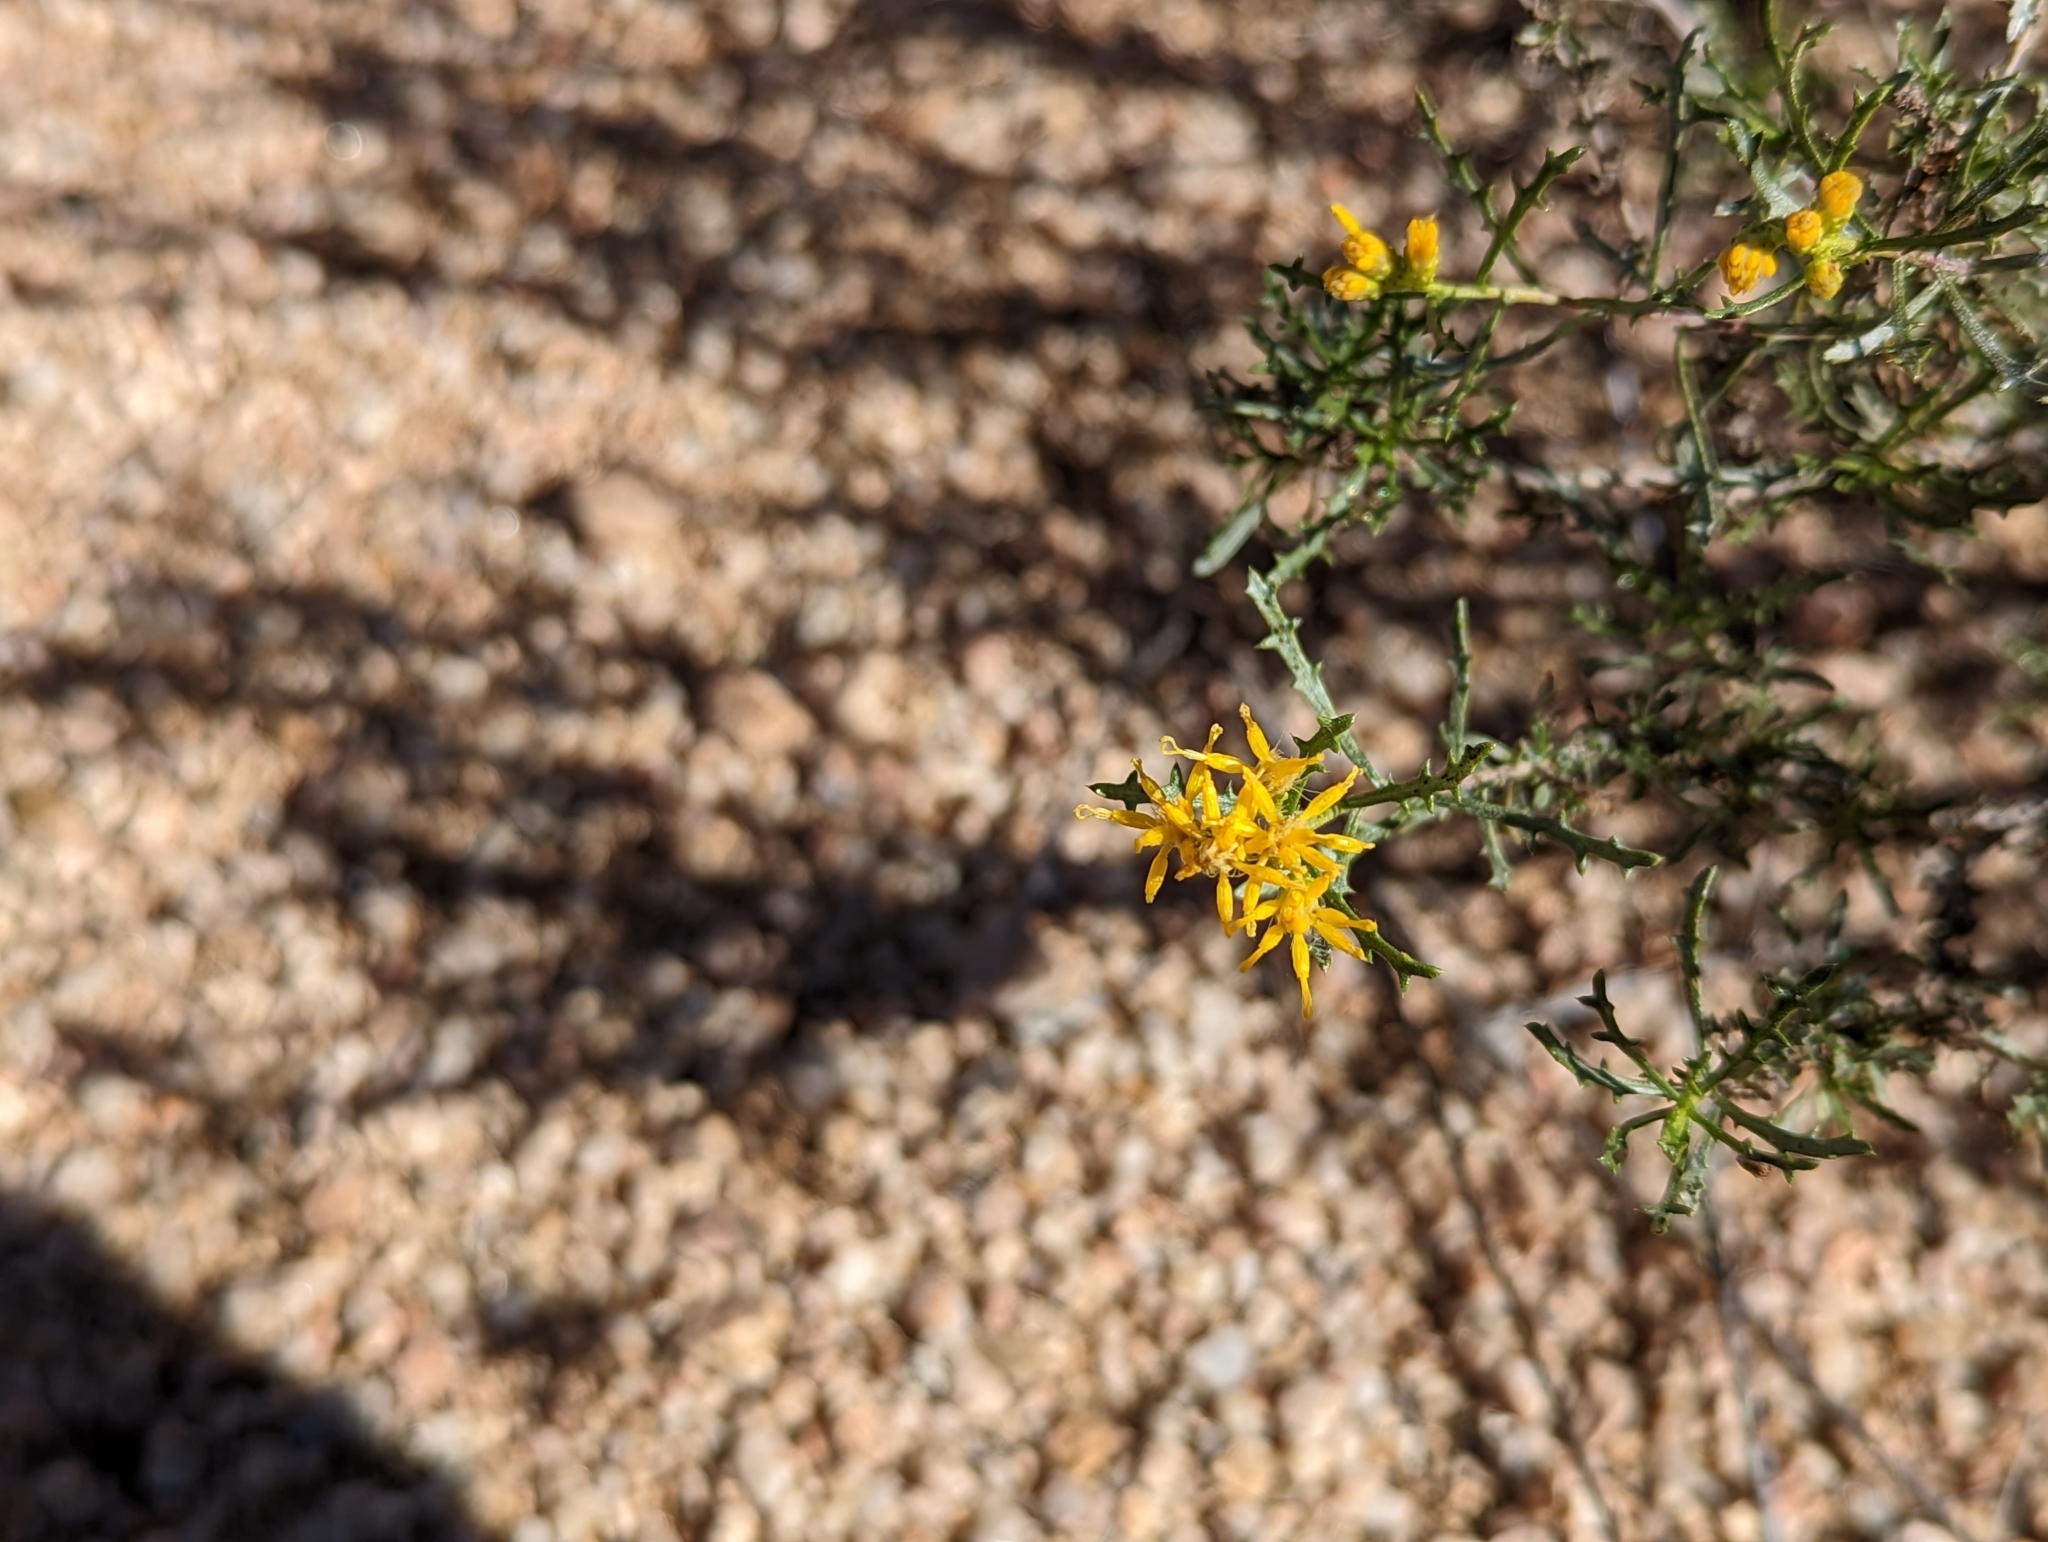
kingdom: Plantae
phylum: Tracheophyta
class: Magnoliopsida
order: Asterales
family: Asteraceae
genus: Isocoma
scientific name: Isocoma tenuisecta
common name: Burroweed
